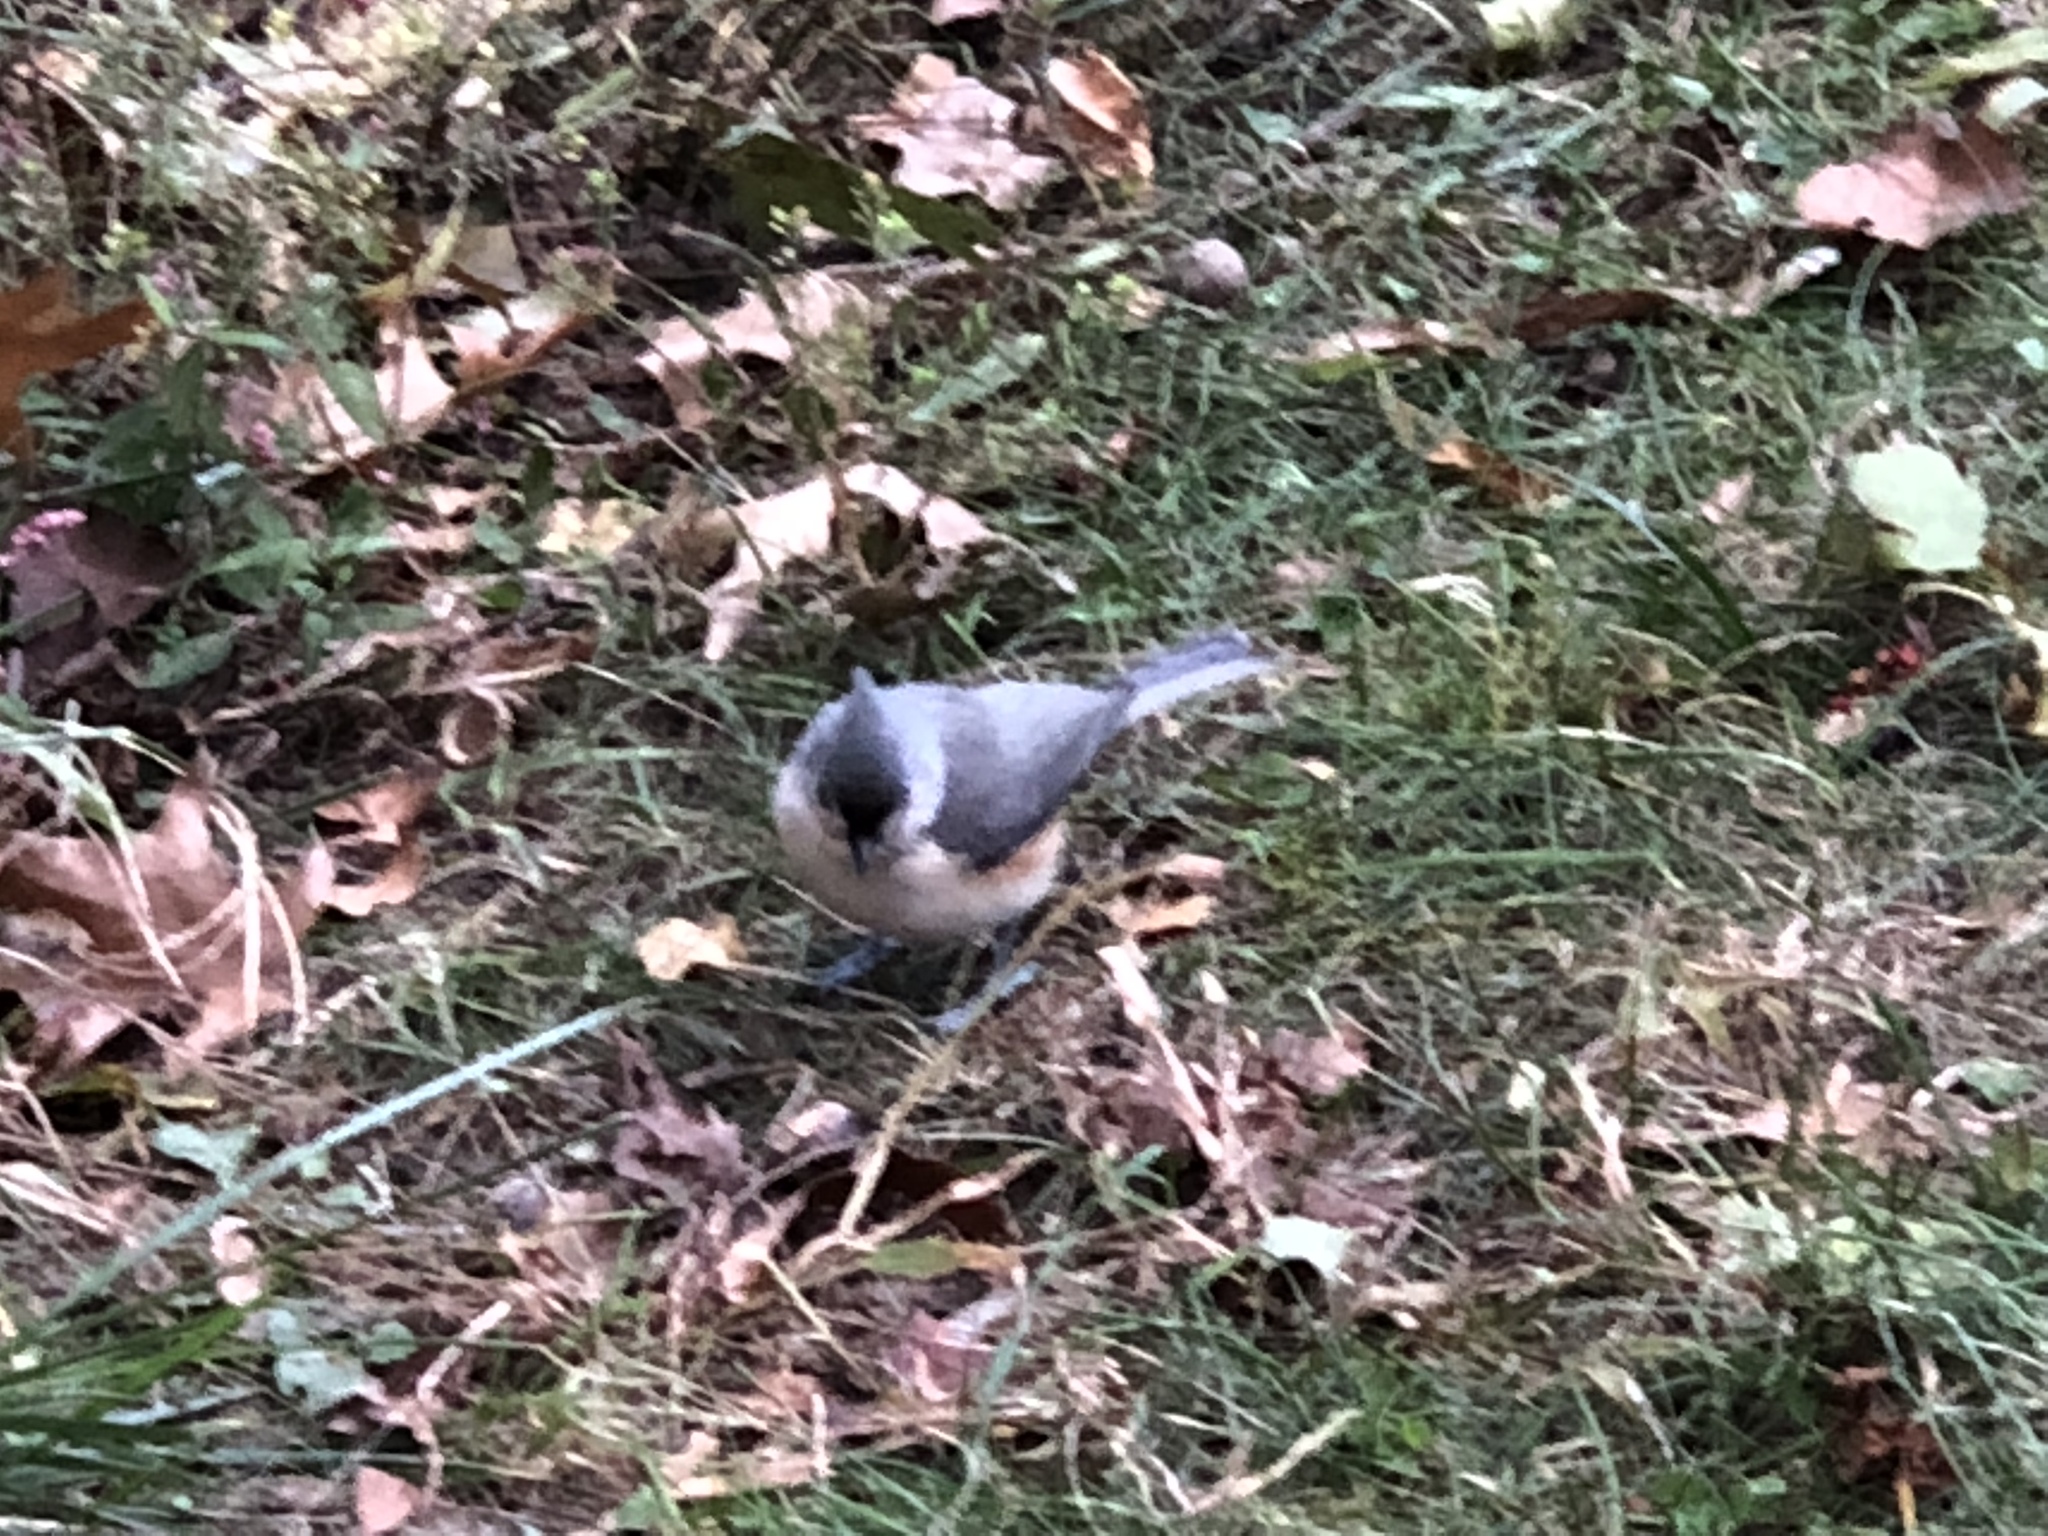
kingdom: Animalia
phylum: Chordata
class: Aves
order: Passeriformes
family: Paridae
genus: Baeolophus
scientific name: Baeolophus bicolor
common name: Tufted titmouse
